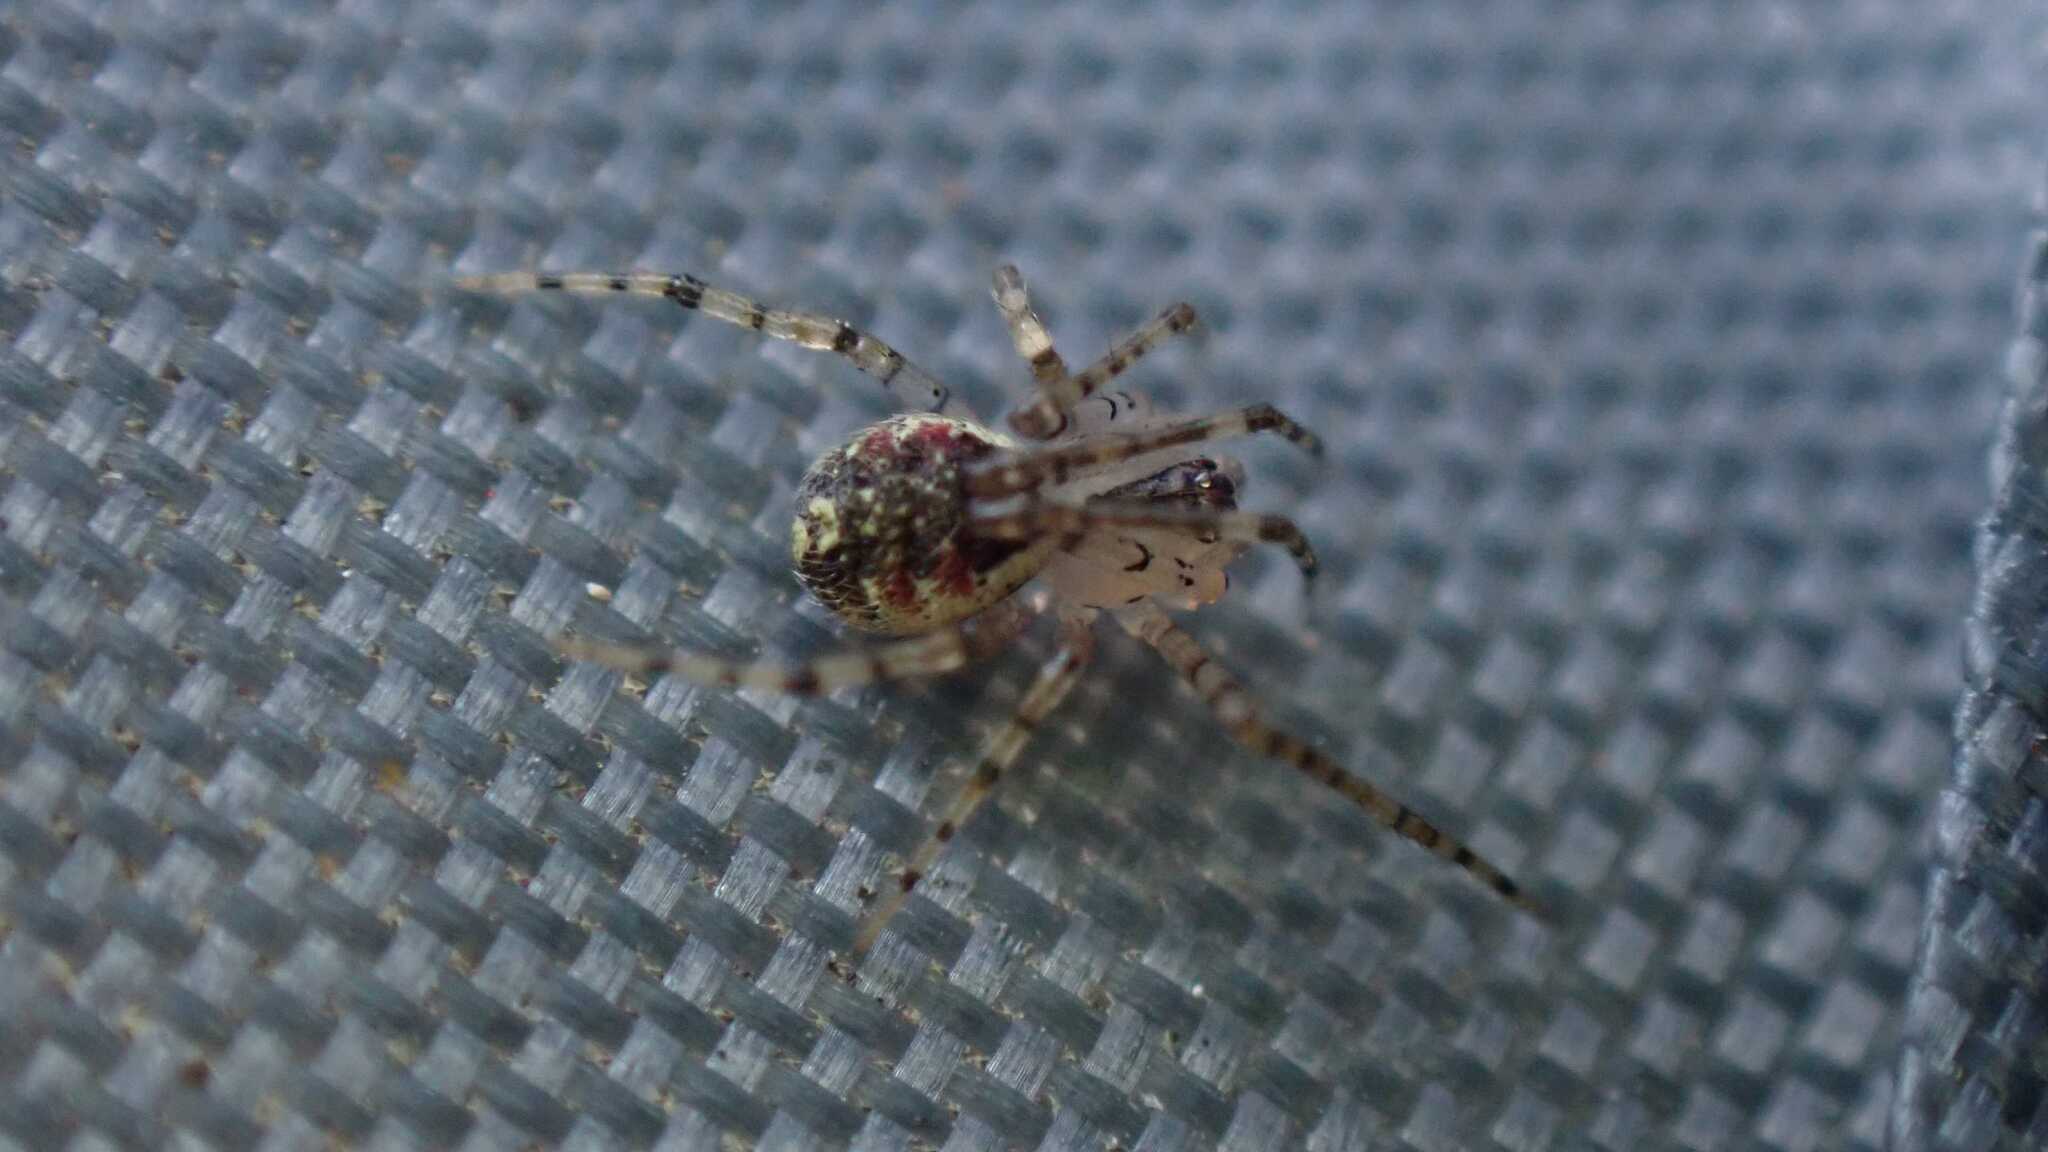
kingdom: Animalia
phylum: Arthropoda
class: Arachnida
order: Araneae
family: Theridiidae
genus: Platnickina
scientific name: Platnickina tincta
